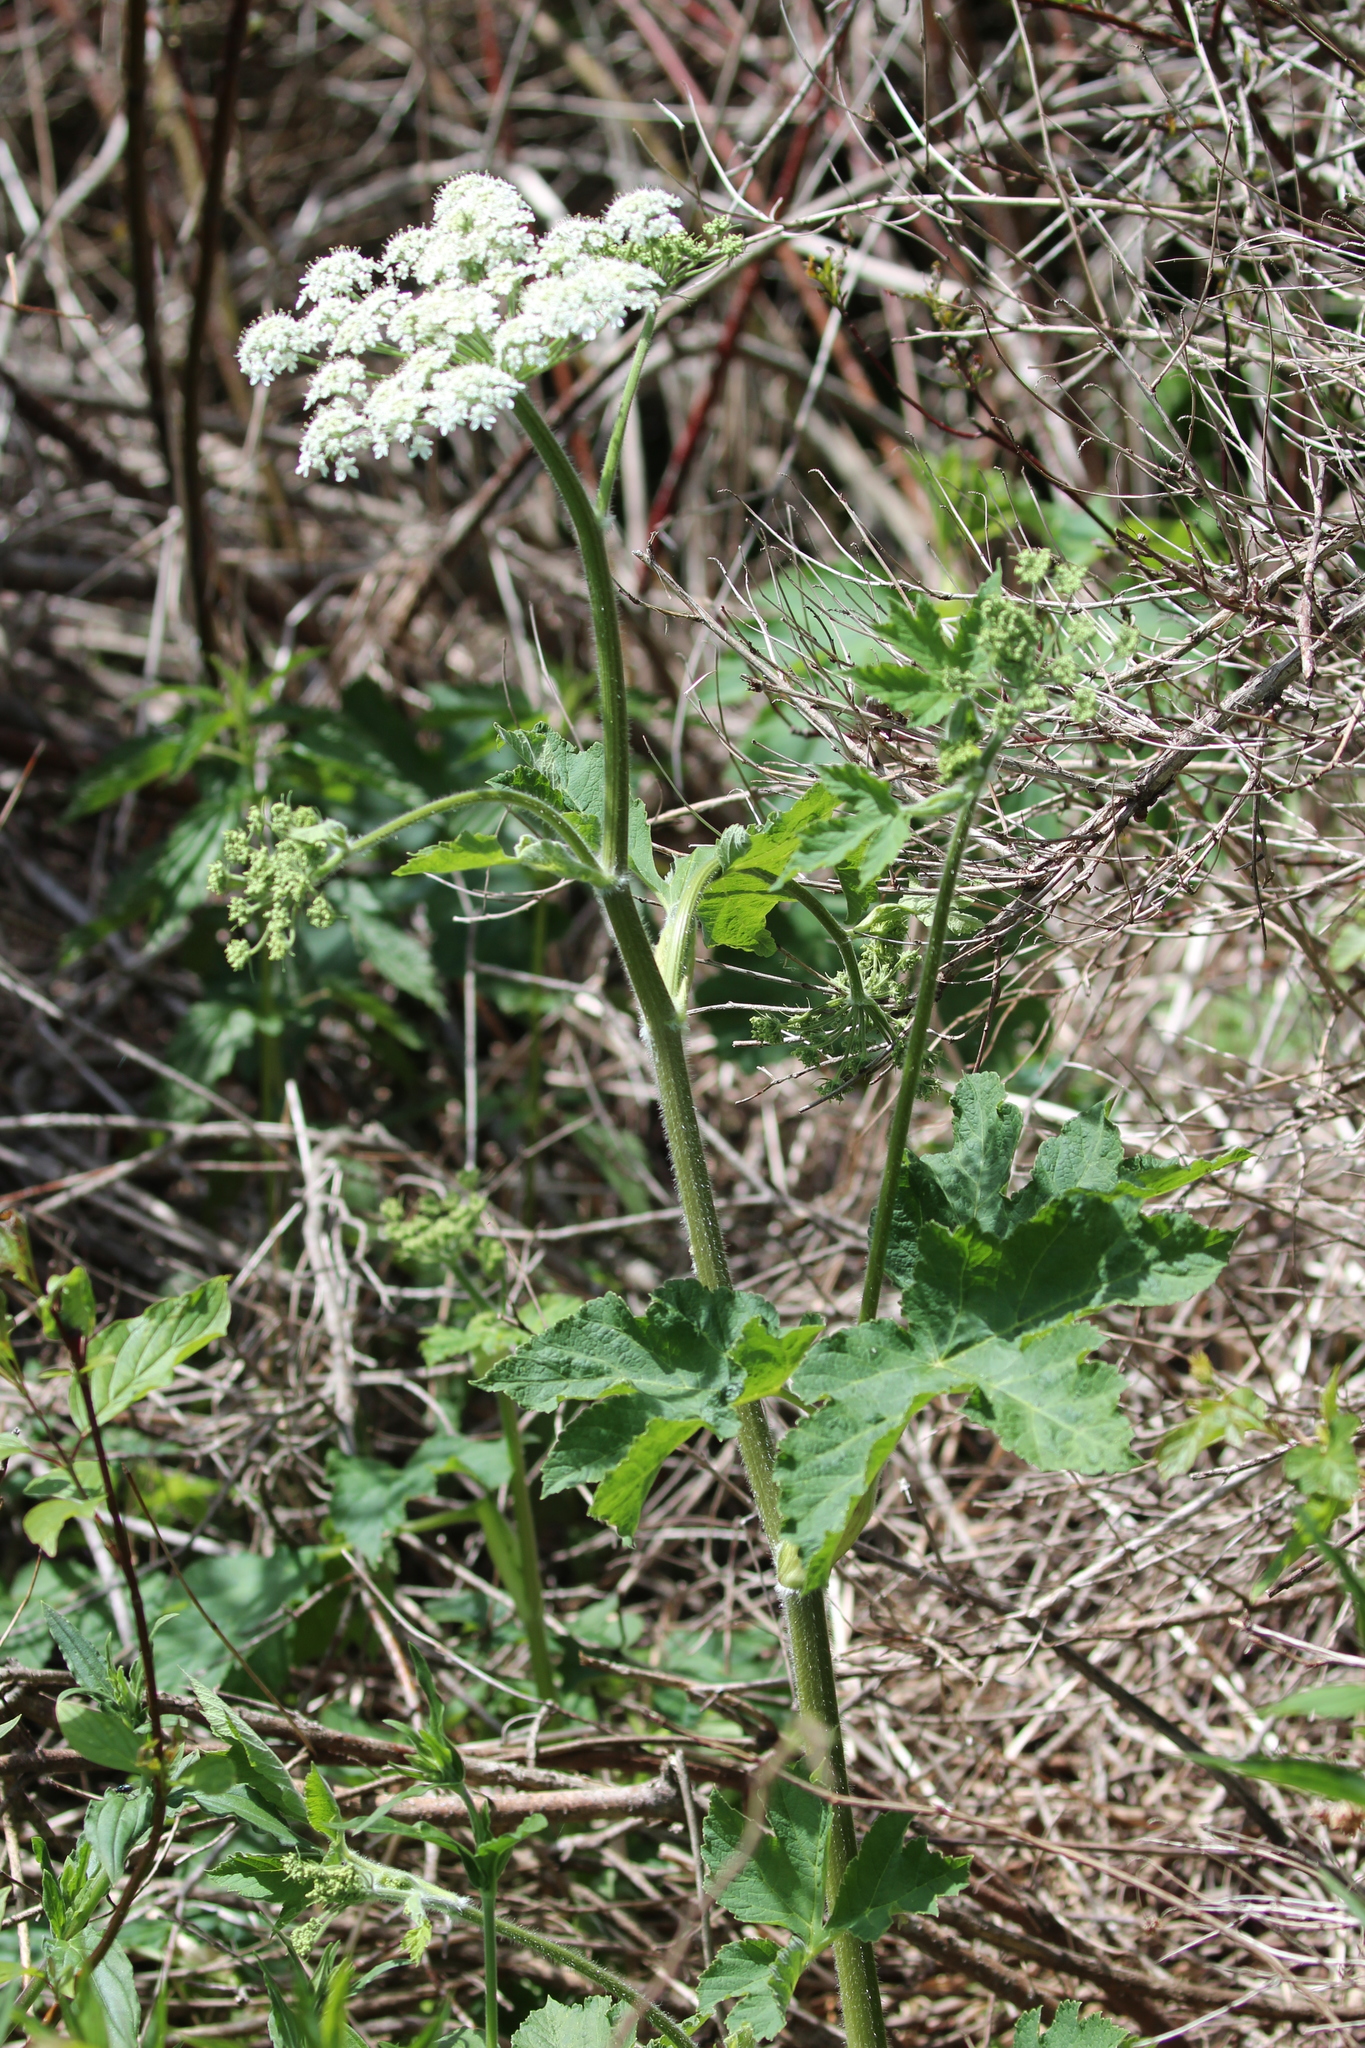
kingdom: Plantae
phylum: Tracheophyta
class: Magnoliopsida
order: Apiales
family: Apiaceae
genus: Heracleum
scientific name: Heracleum maximum
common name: American cow parsnip
